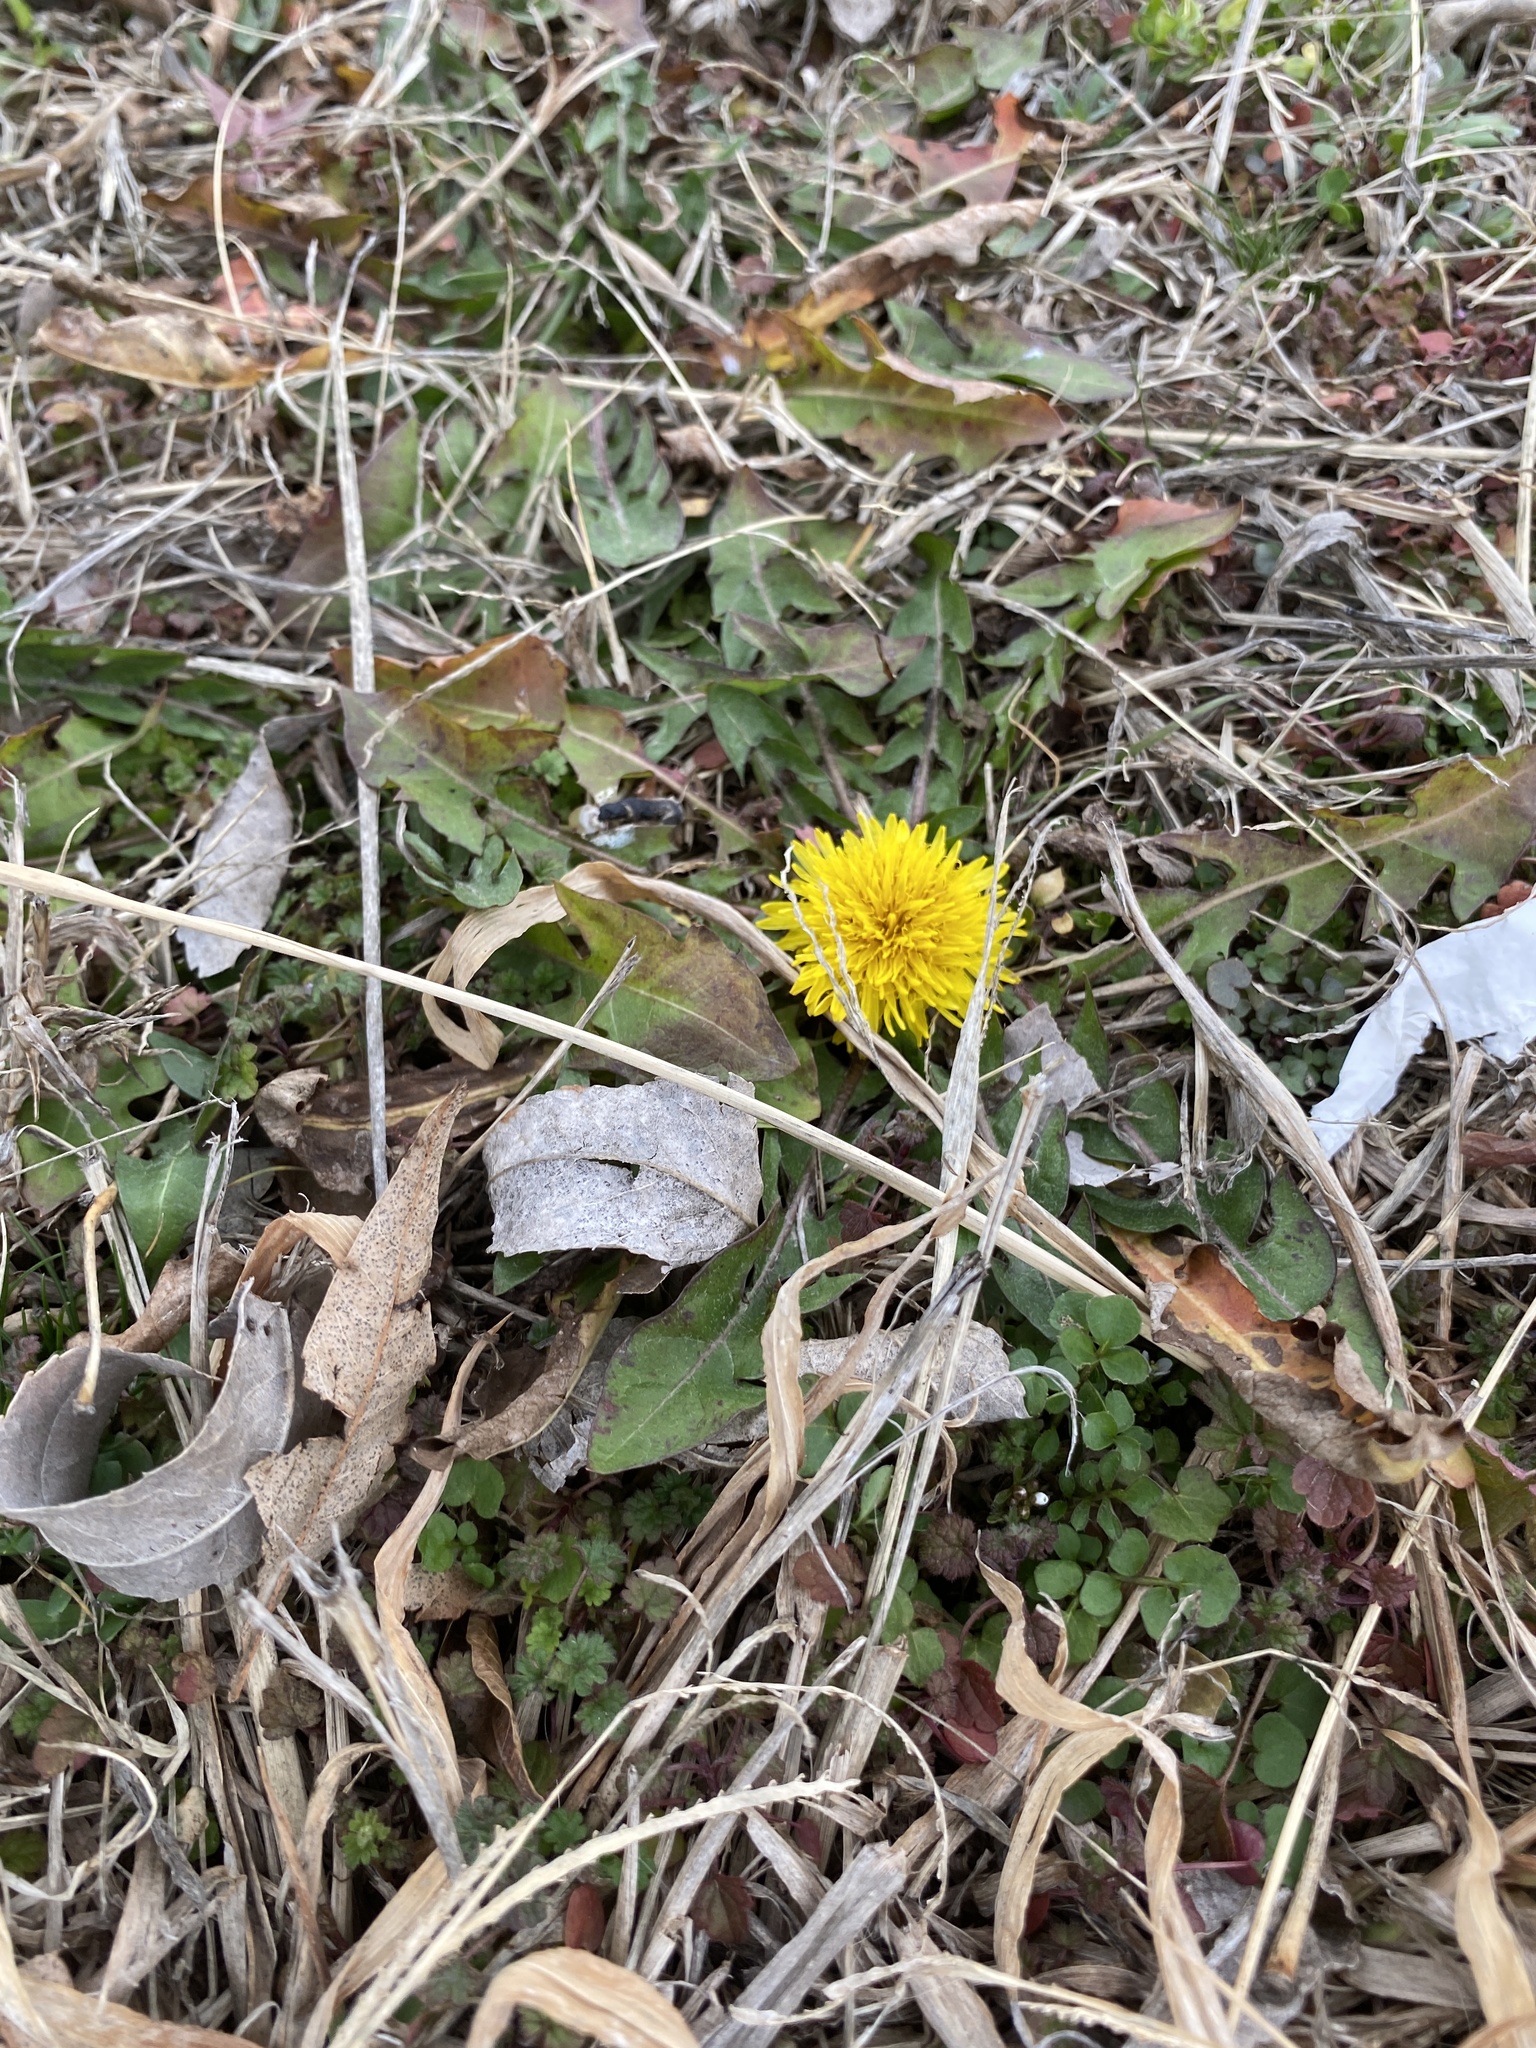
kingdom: Plantae
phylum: Tracheophyta
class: Magnoliopsida
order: Asterales
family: Asteraceae
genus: Taraxacum
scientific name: Taraxacum officinale
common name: Common dandelion
